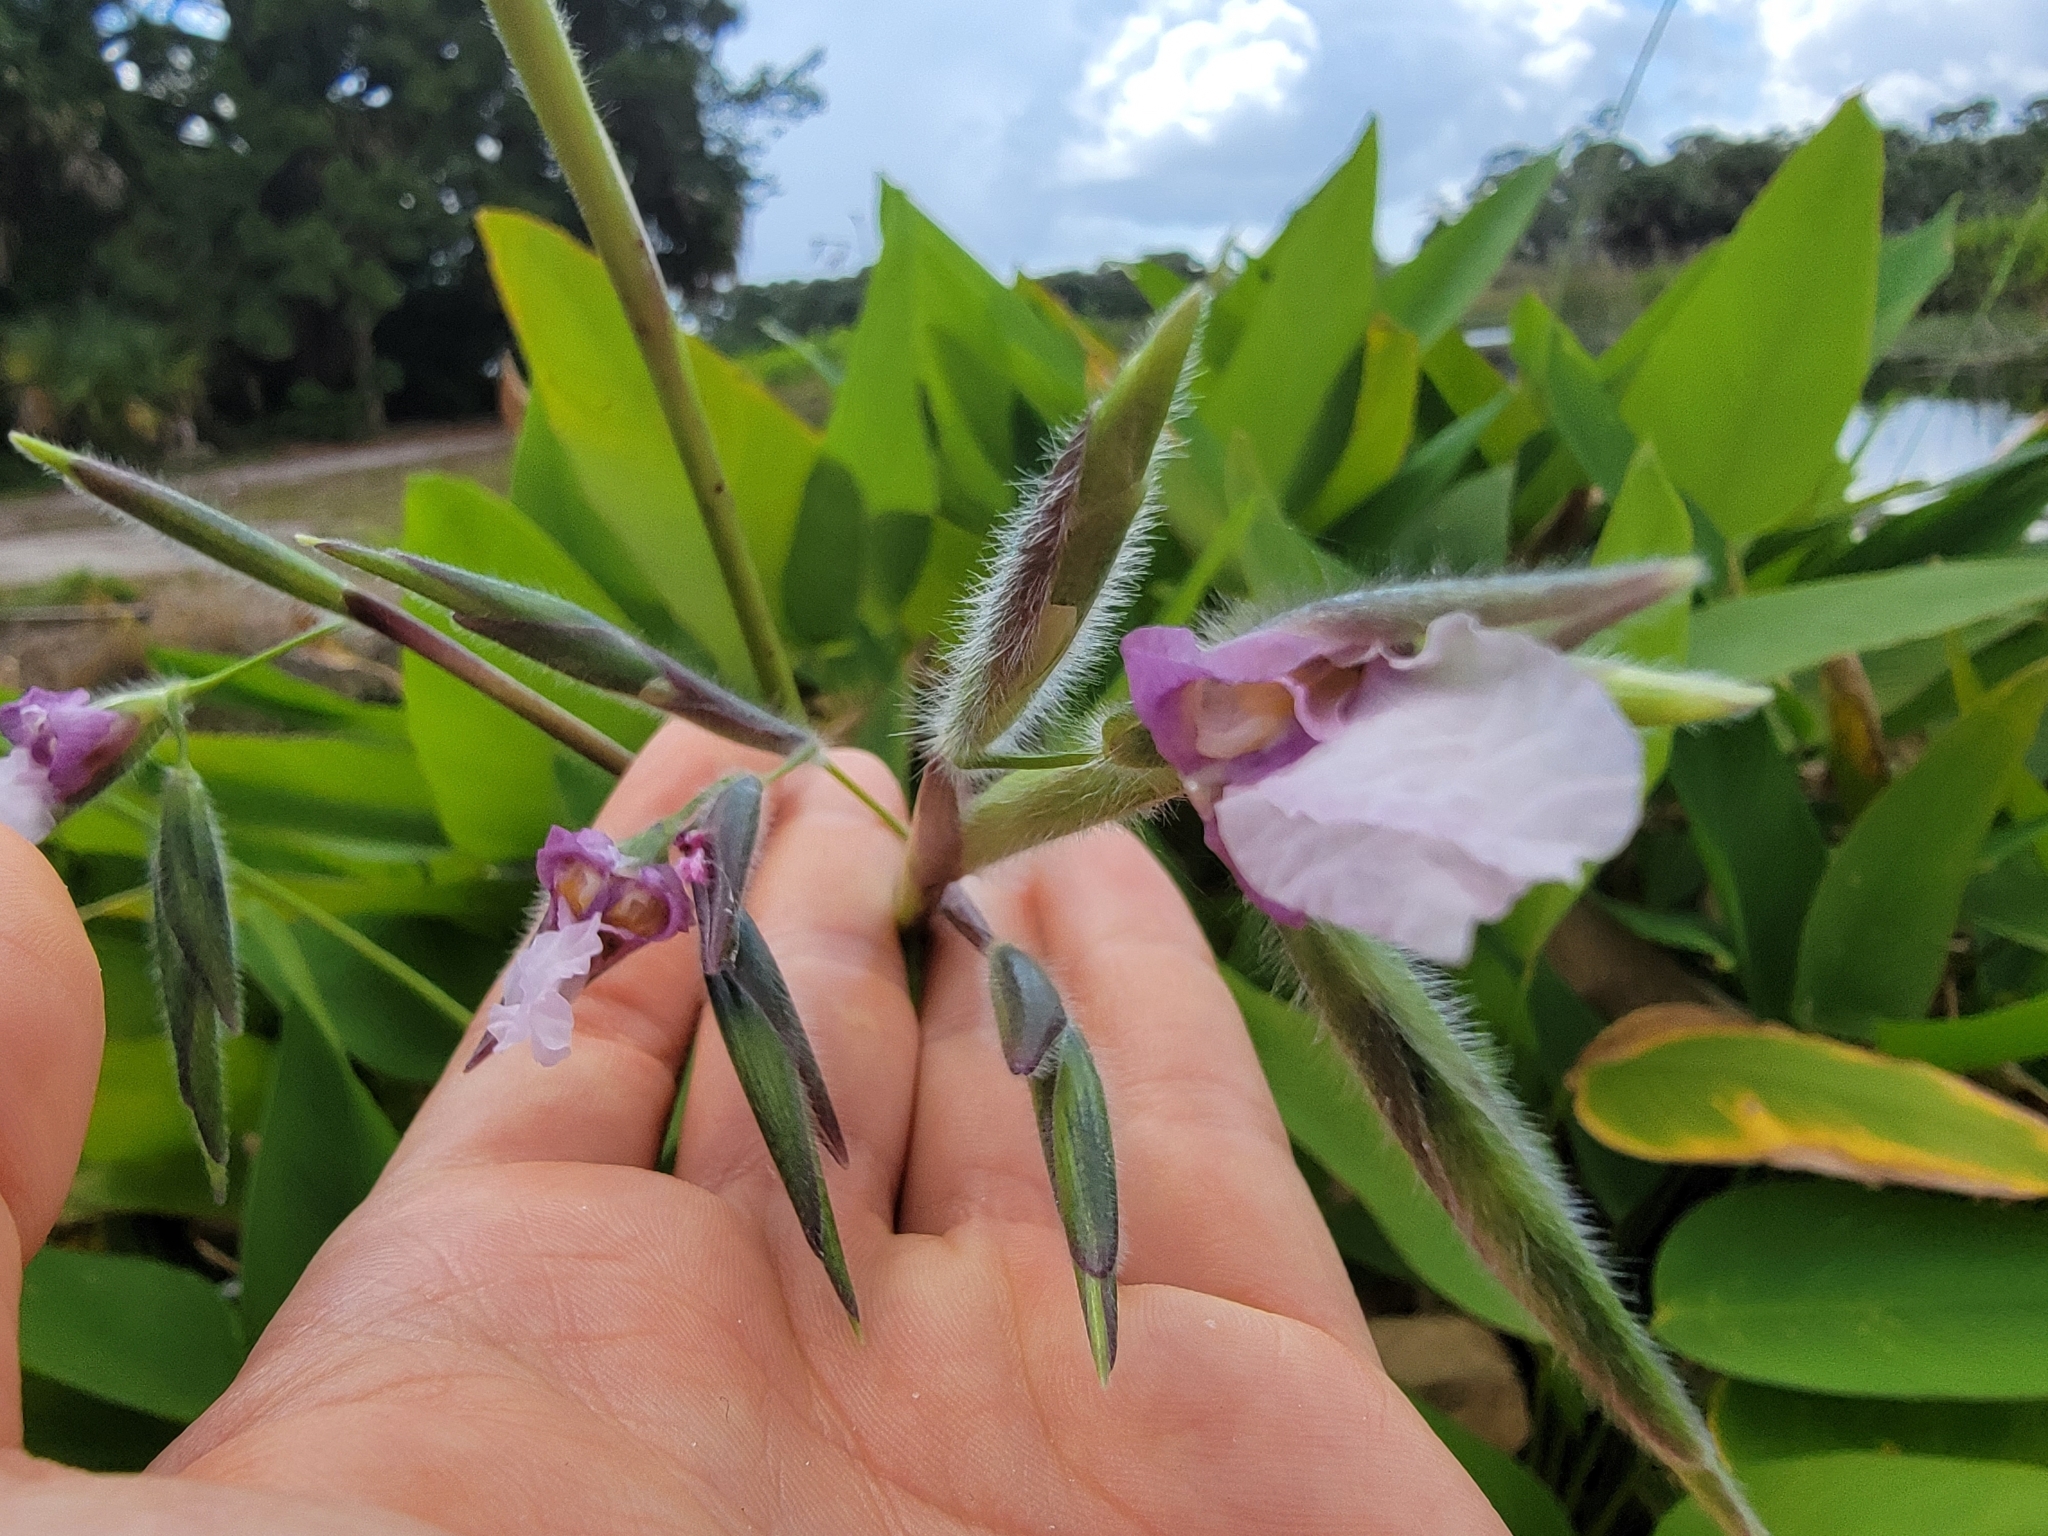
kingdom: Plantae
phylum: Tracheophyta
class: Liliopsida
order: Zingiberales
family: Marantaceae
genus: Thalia
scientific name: Thalia geniculata
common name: Arrowroot
